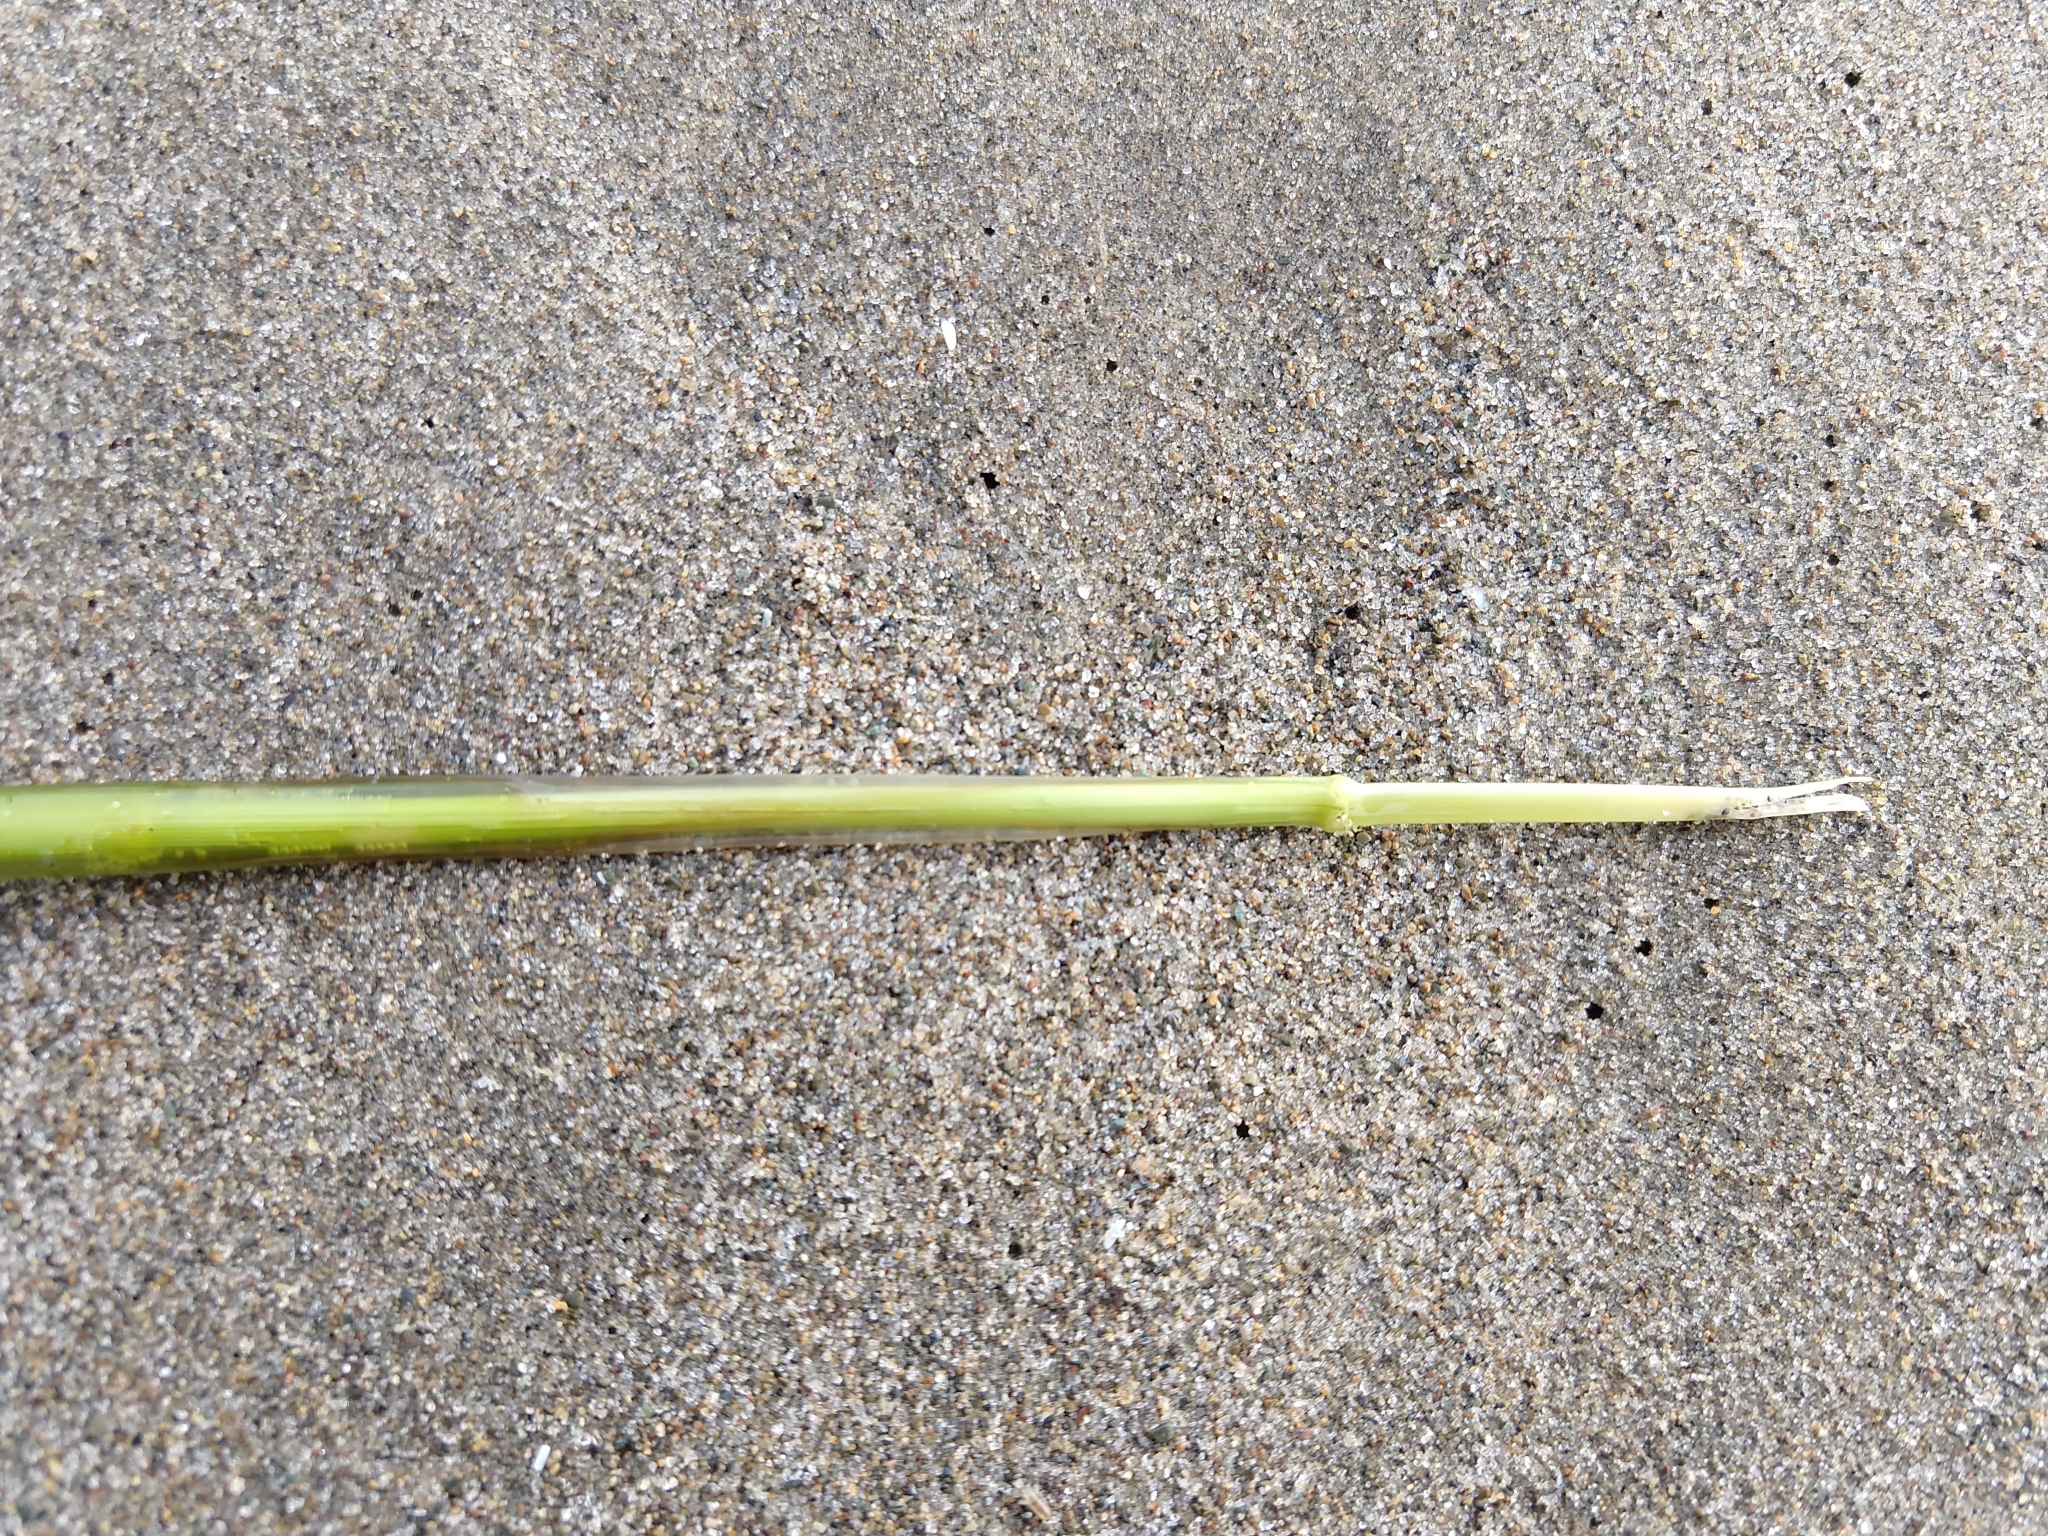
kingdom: Plantae
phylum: Tracheophyta
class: Liliopsida
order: Alismatales
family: Zosteraceae
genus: Zostera
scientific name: Zostera marina
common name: Eelgrass
